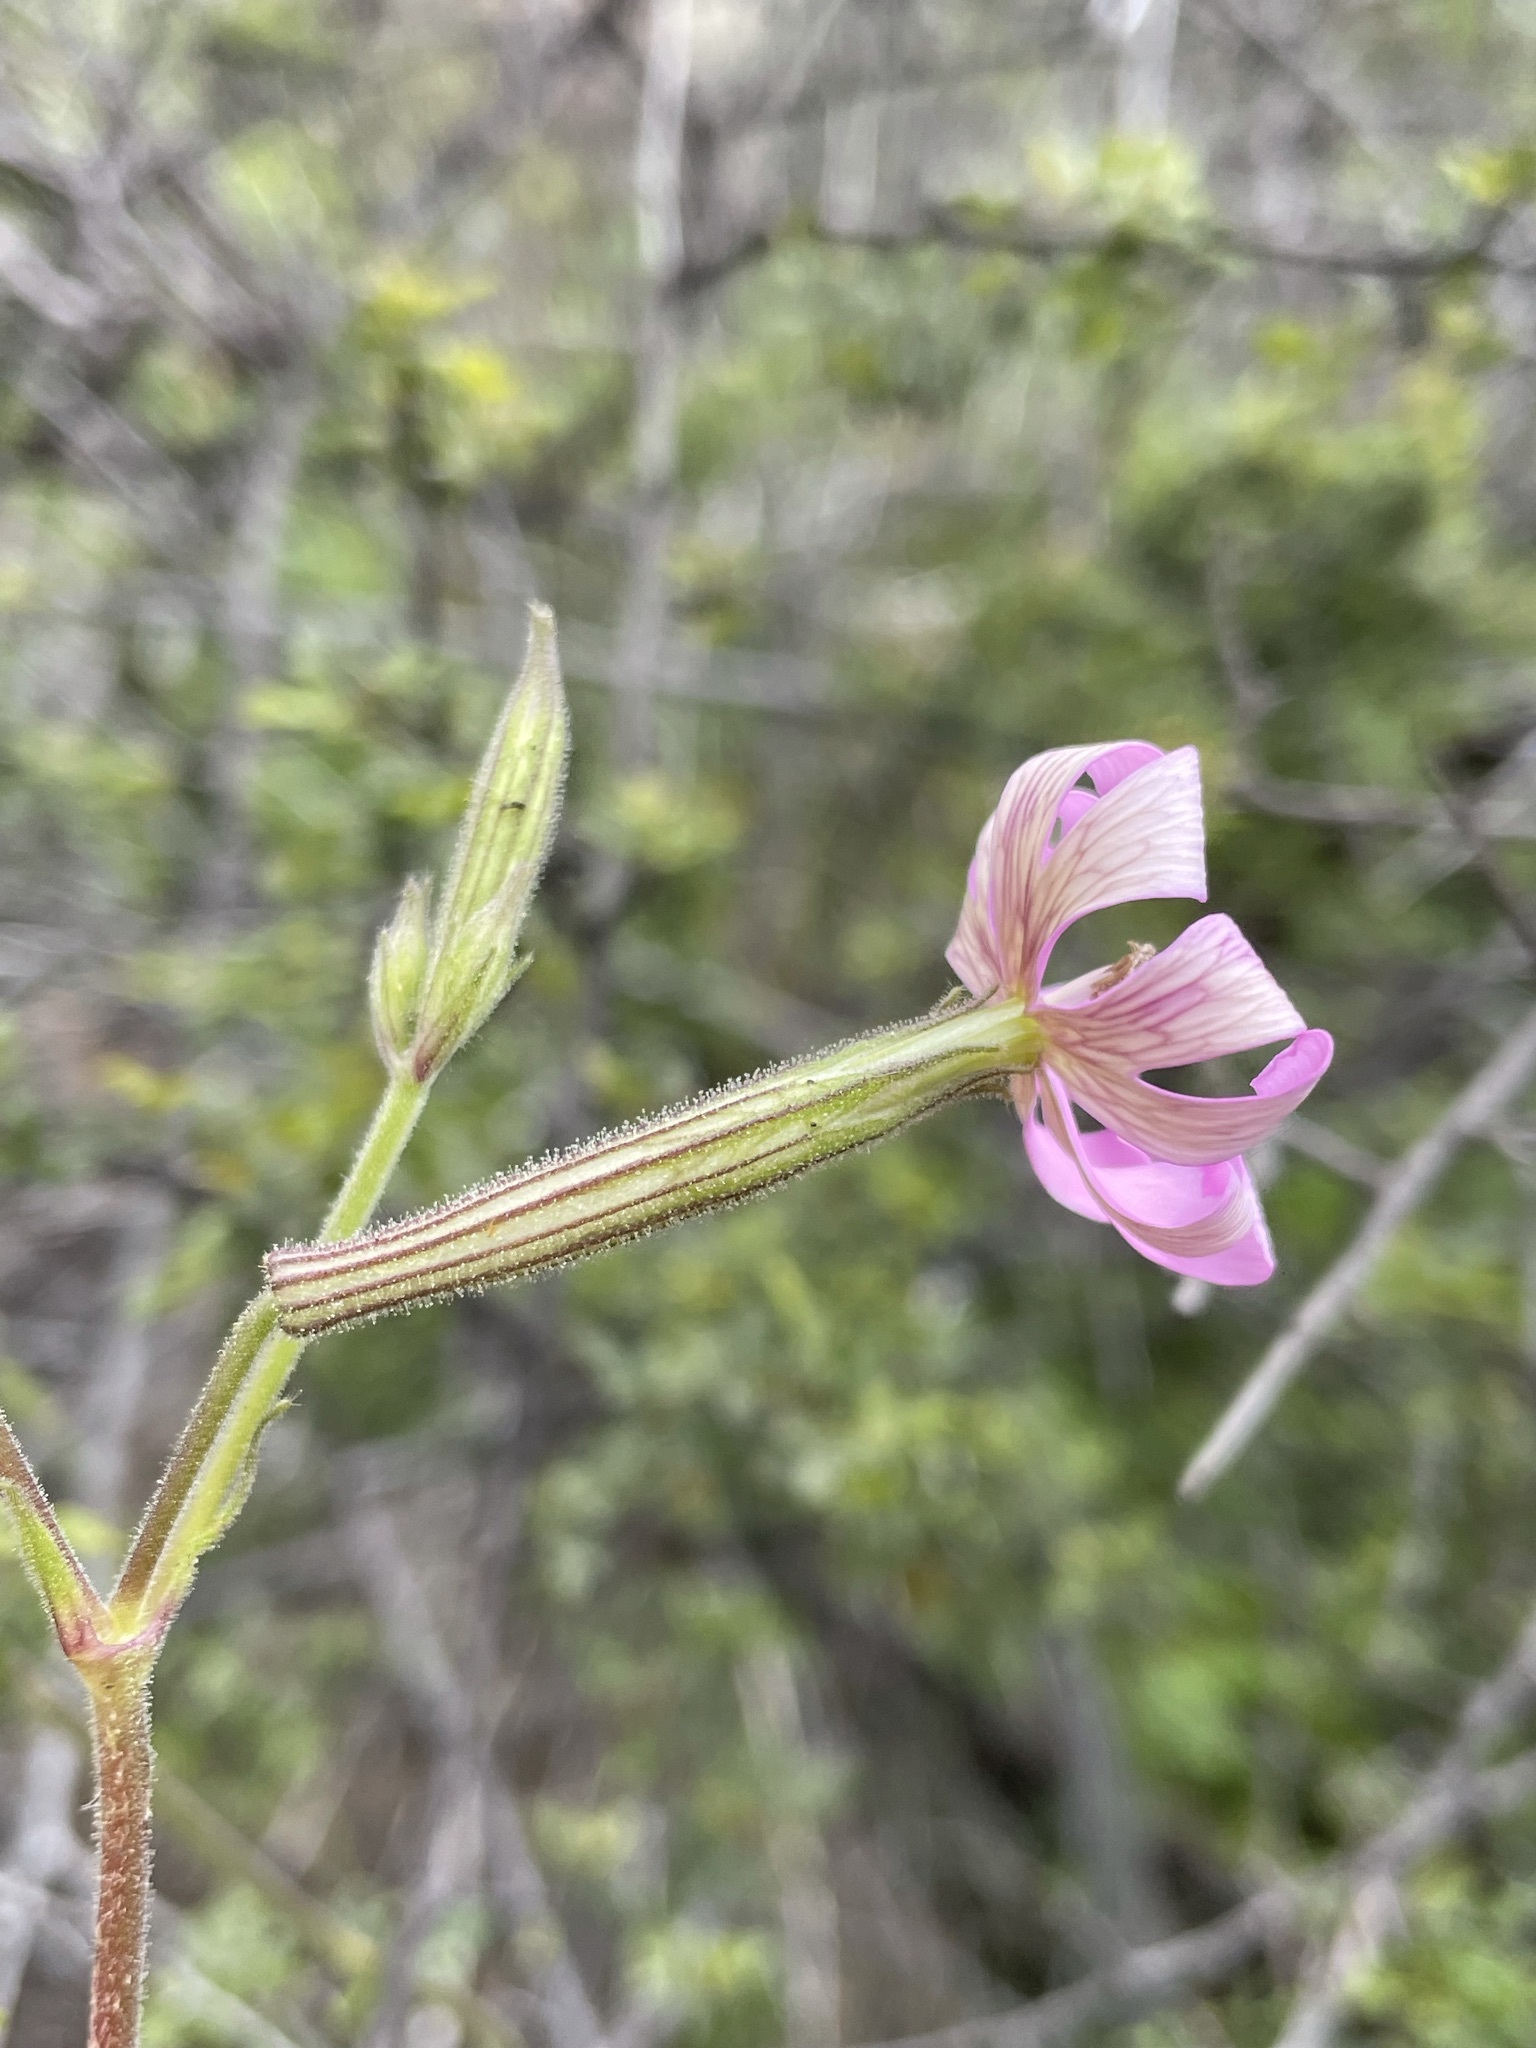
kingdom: Plantae
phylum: Tracheophyta
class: Magnoliopsida
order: Caryophyllales
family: Caryophyllaceae
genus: Silene
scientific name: Silene undulata
